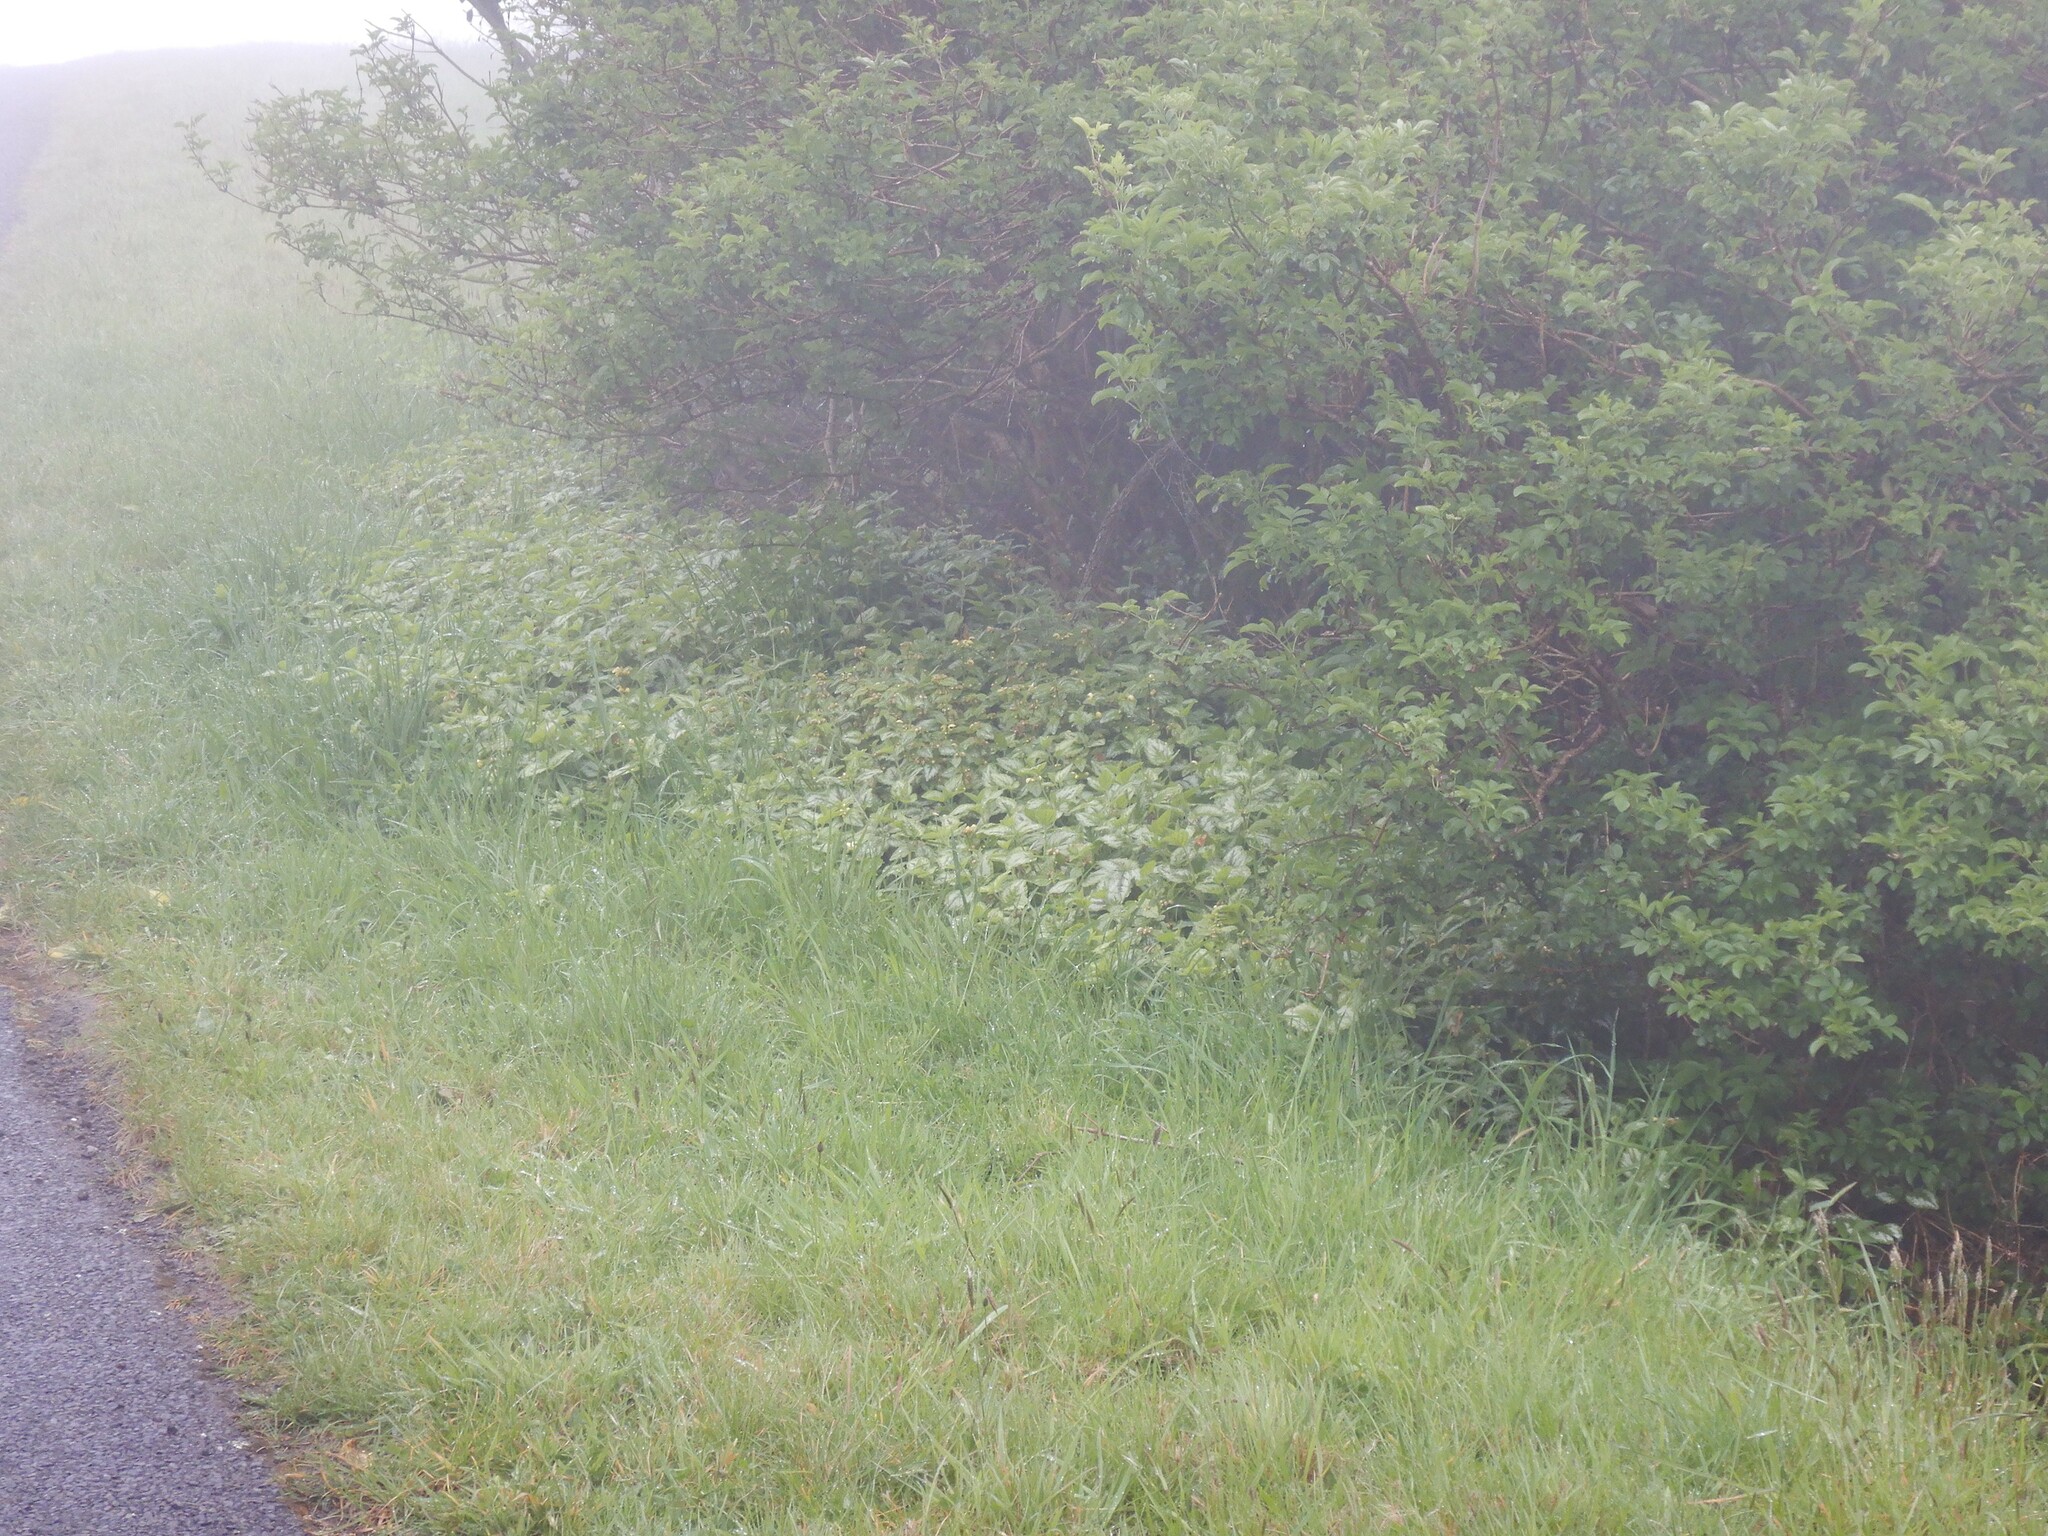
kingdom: Plantae
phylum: Tracheophyta
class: Magnoliopsida
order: Lamiales
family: Lamiaceae
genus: Lamium
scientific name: Lamium galeobdolon
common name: Yellow archangel
